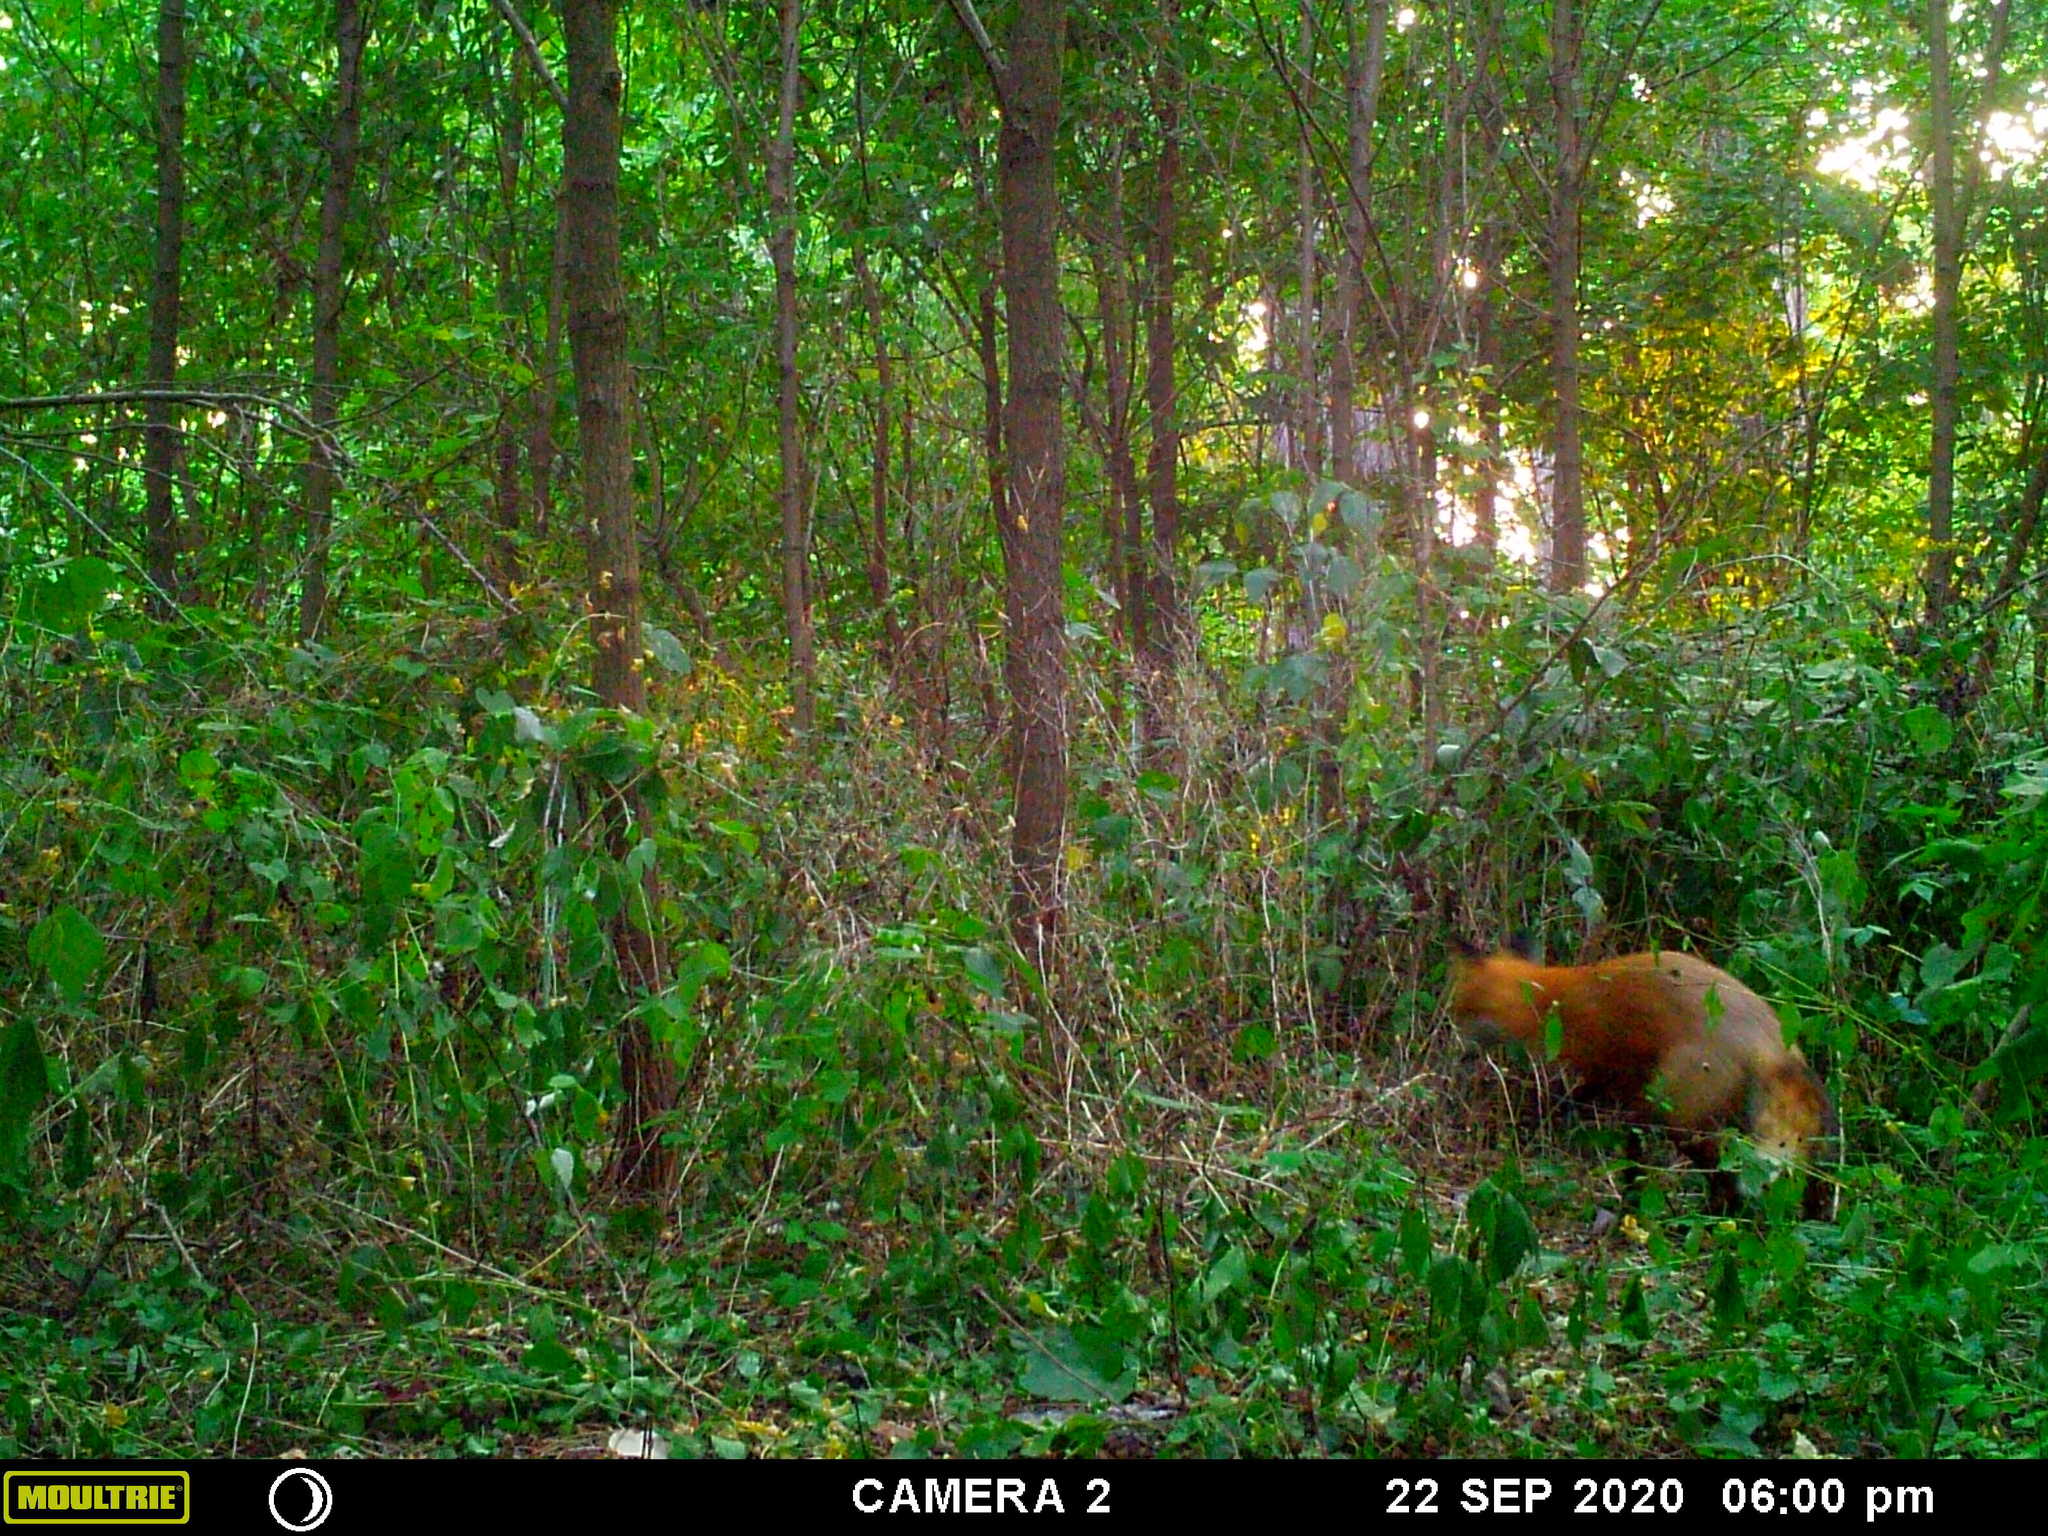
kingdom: Animalia
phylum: Chordata
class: Mammalia
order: Carnivora
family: Canidae
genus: Vulpes
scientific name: Vulpes vulpes
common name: Red fox
